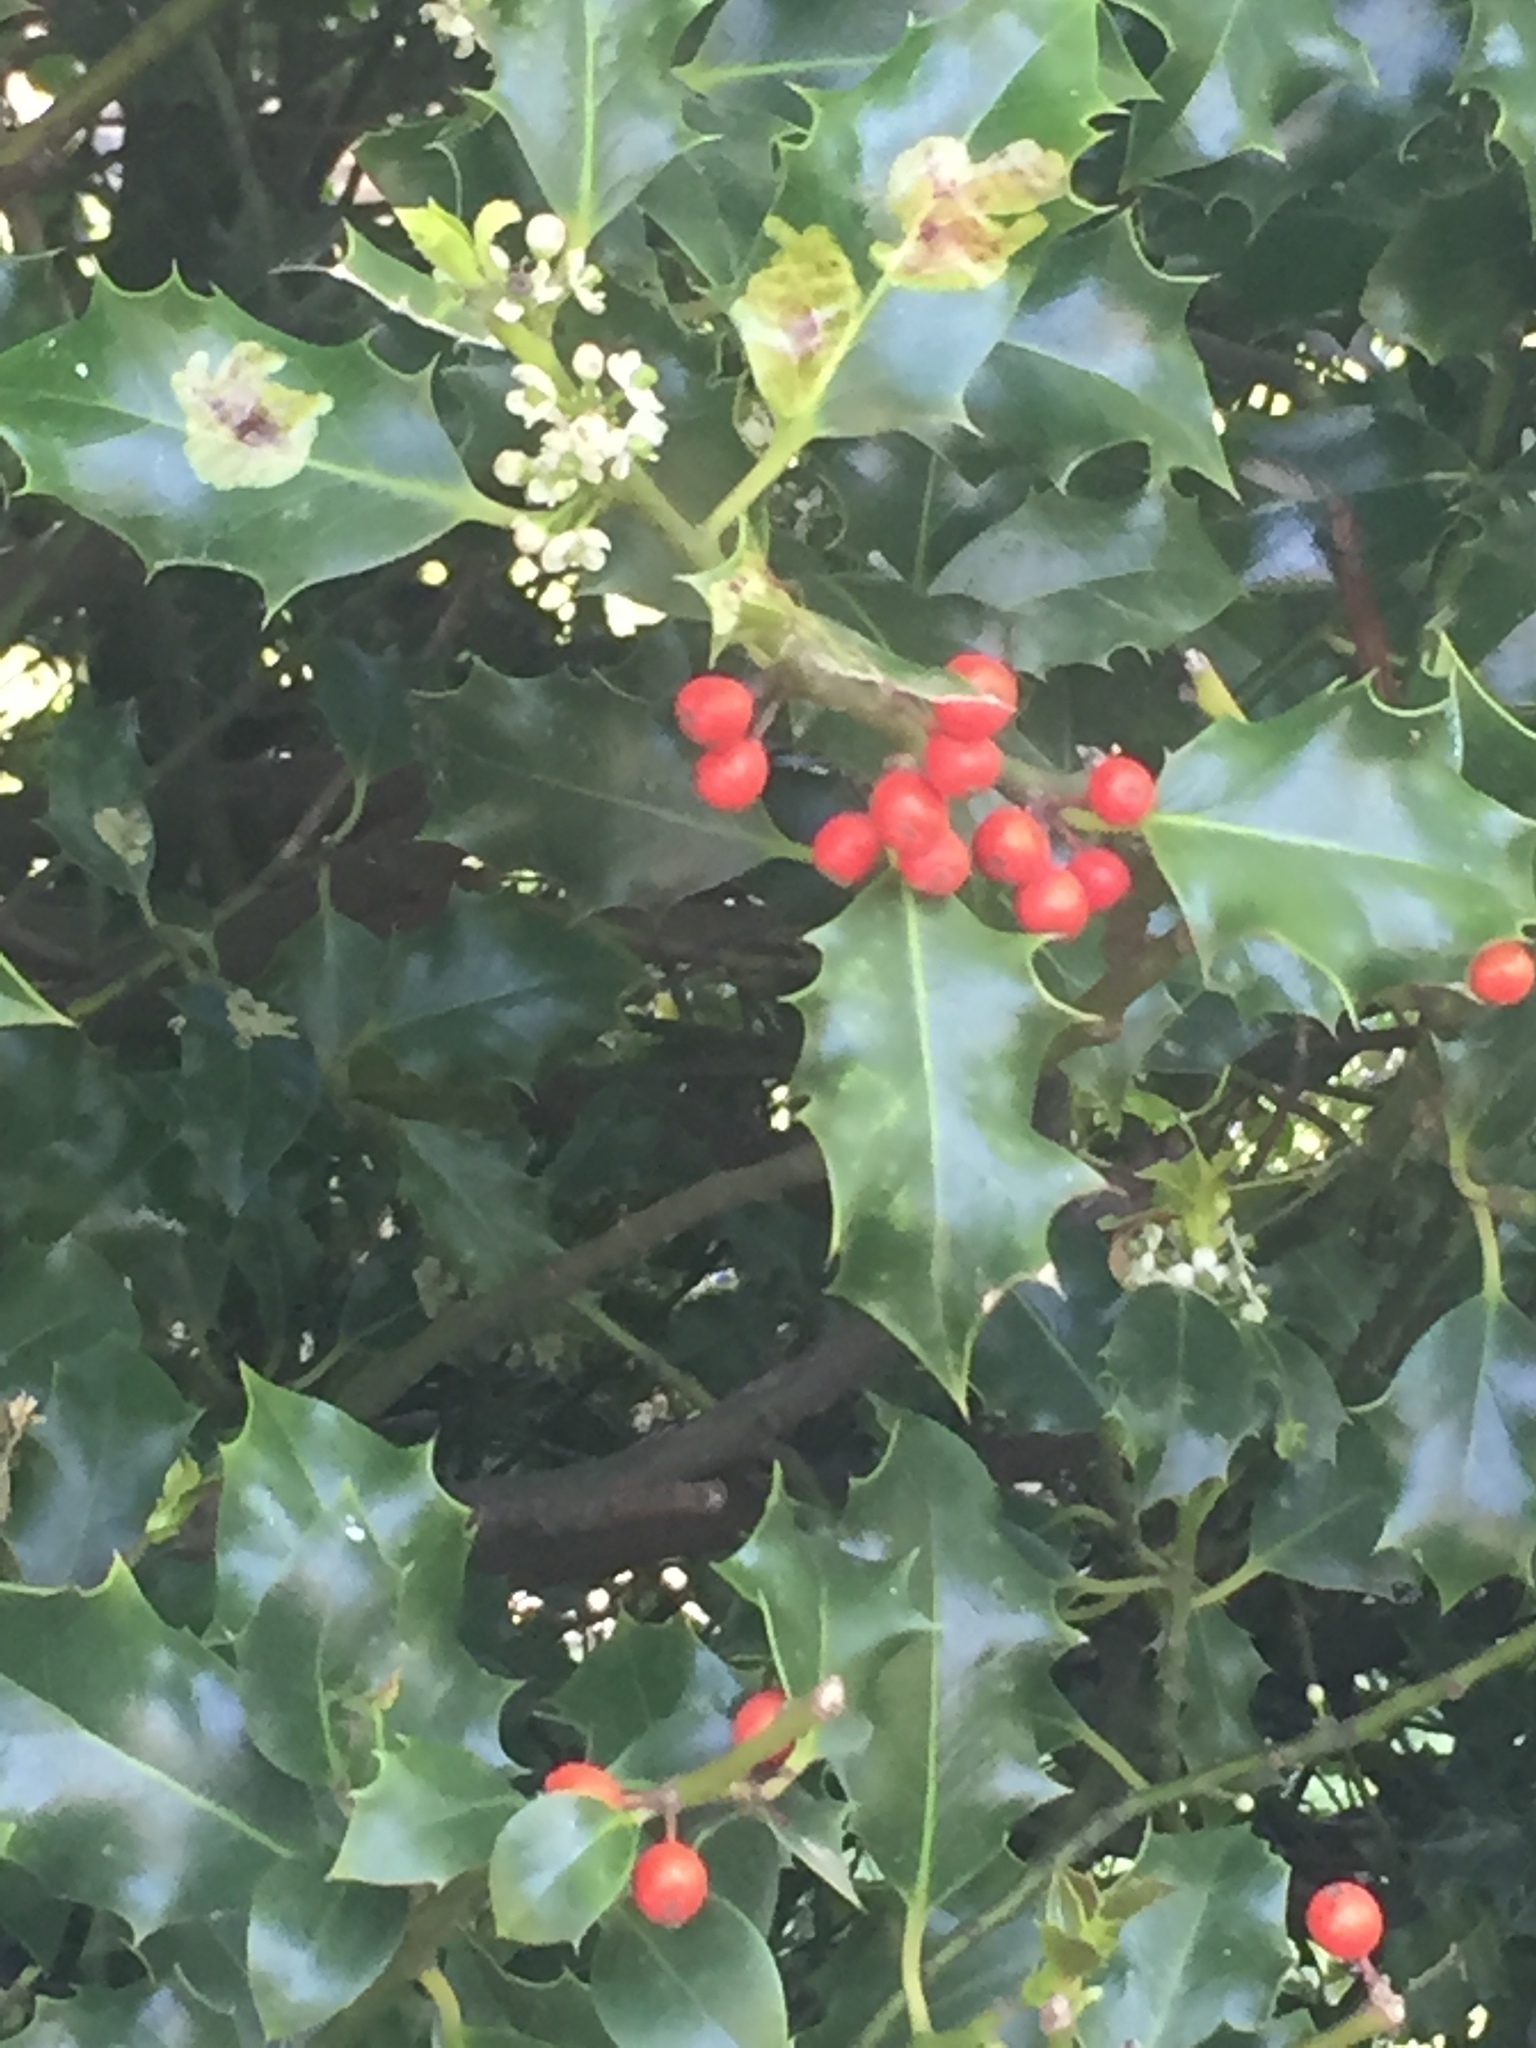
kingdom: Plantae
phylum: Tracheophyta
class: Magnoliopsida
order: Aquifoliales
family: Aquifoliaceae
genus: Ilex
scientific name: Ilex aquifolium
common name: English holly
